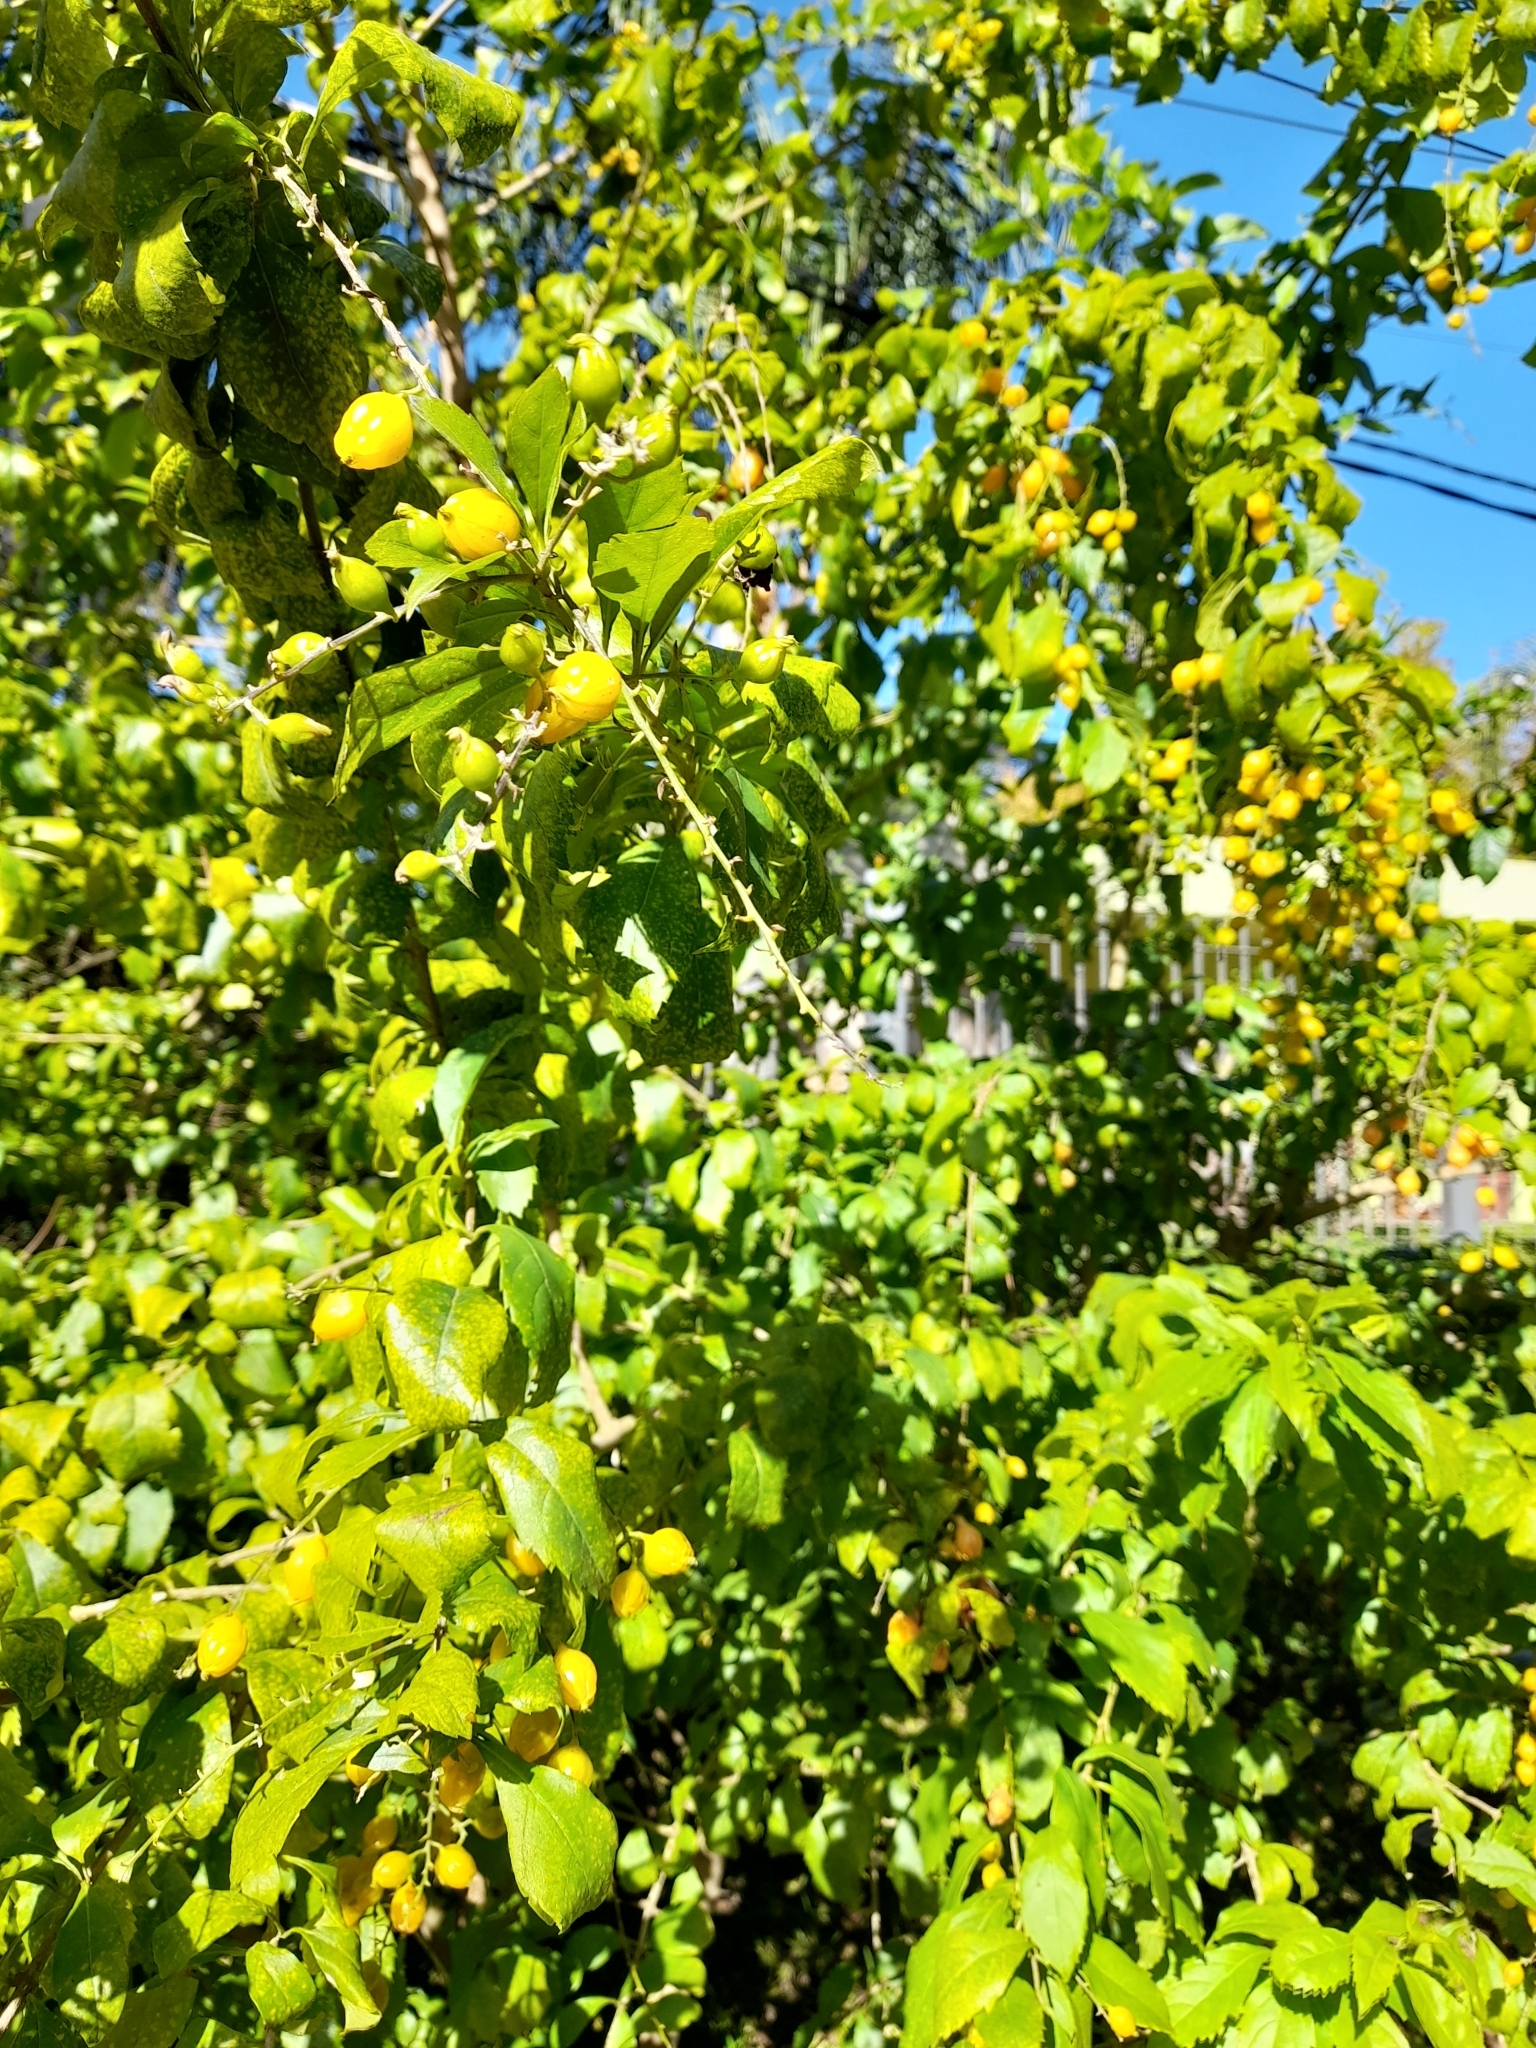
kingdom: Plantae
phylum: Tracheophyta
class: Magnoliopsida
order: Lamiales
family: Verbenaceae
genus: Duranta
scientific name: Duranta erecta
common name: Golden dewdrops
